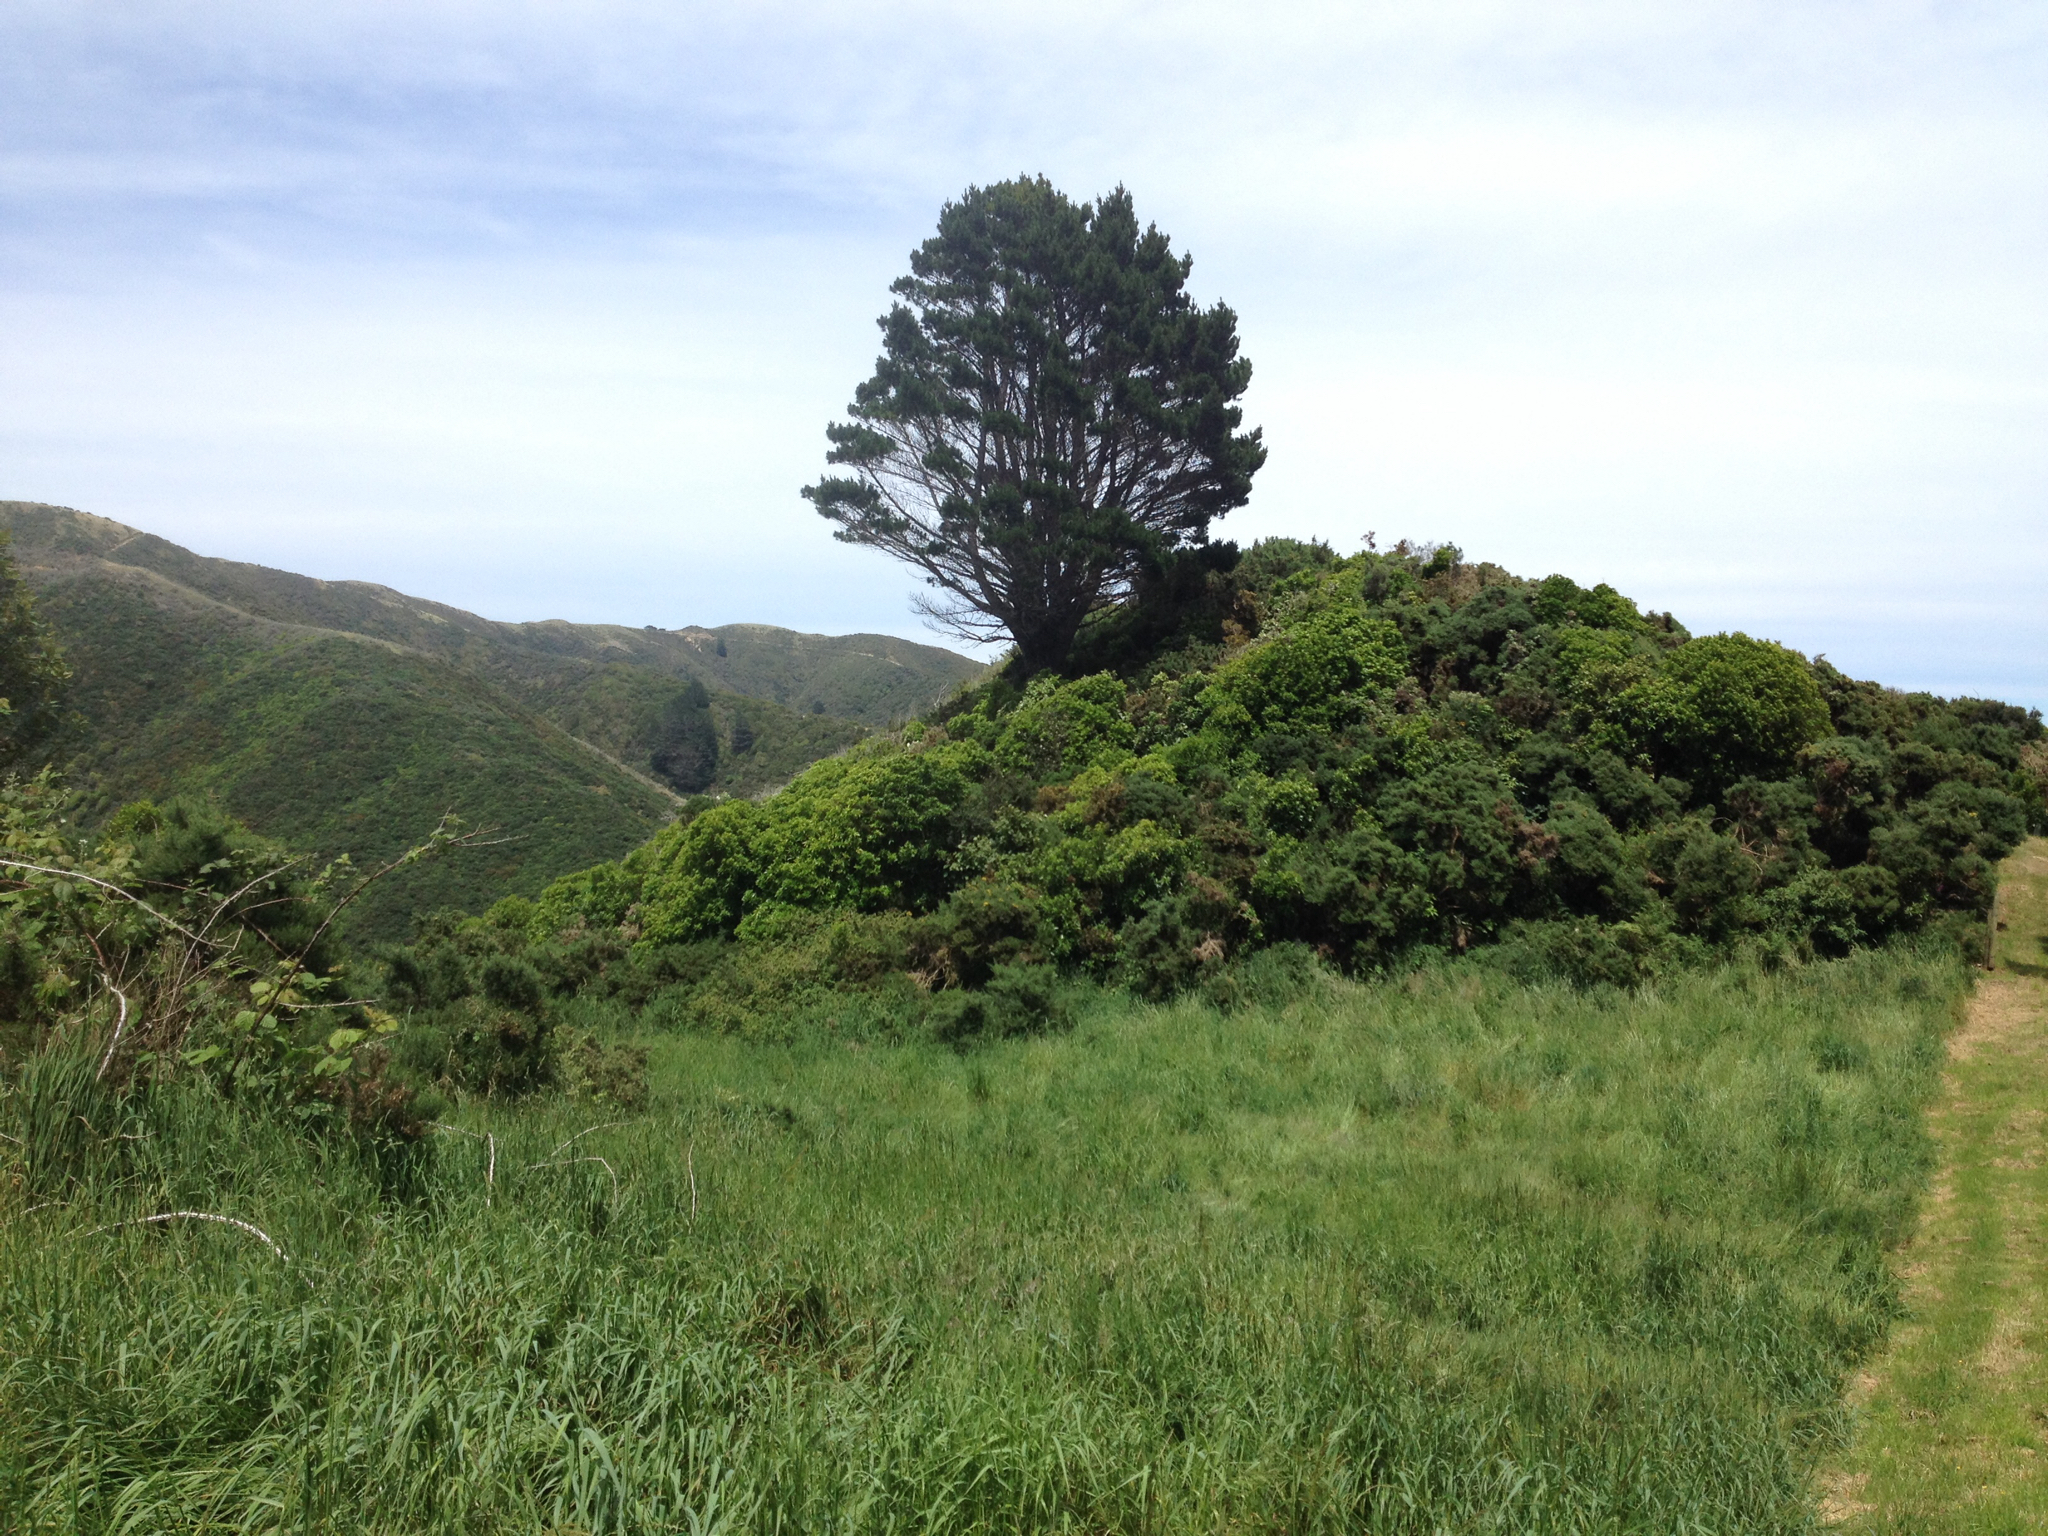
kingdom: Plantae
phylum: Tracheophyta
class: Pinopsida
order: Pinales
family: Pinaceae
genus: Pinus
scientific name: Pinus radiata
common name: Monterey pine
